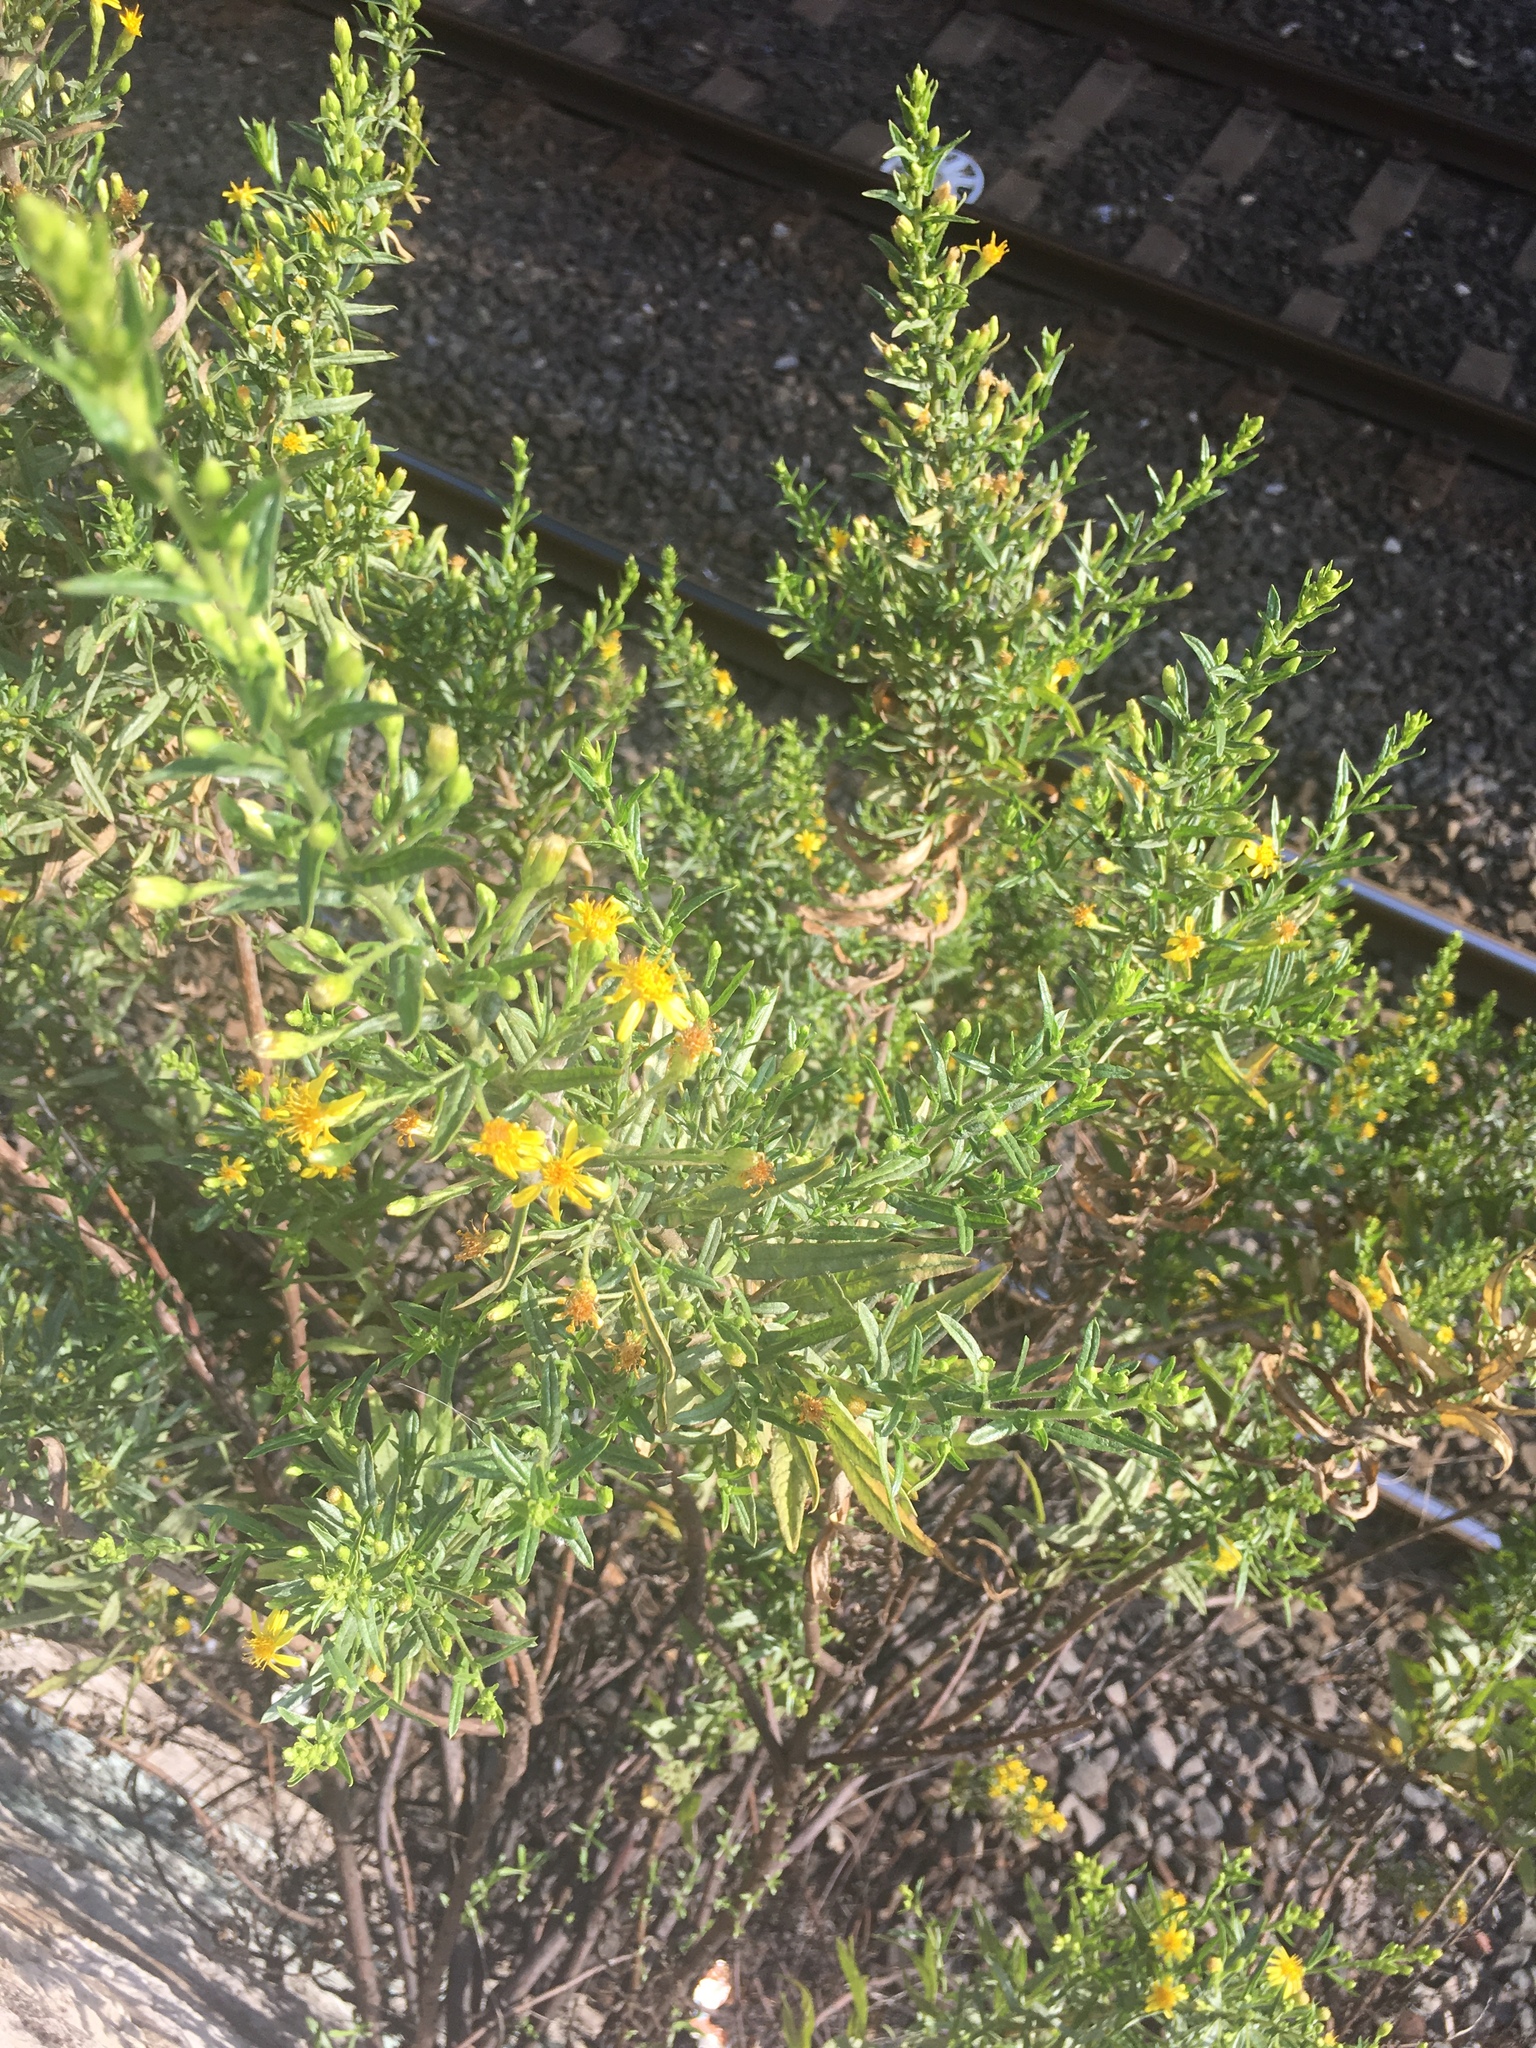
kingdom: Plantae
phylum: Tracheophyta
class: Magnoliopsida
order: Asterales
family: Asteraceae
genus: Dittrichia
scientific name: Dittrichia viscosa
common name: Woody fleabane
